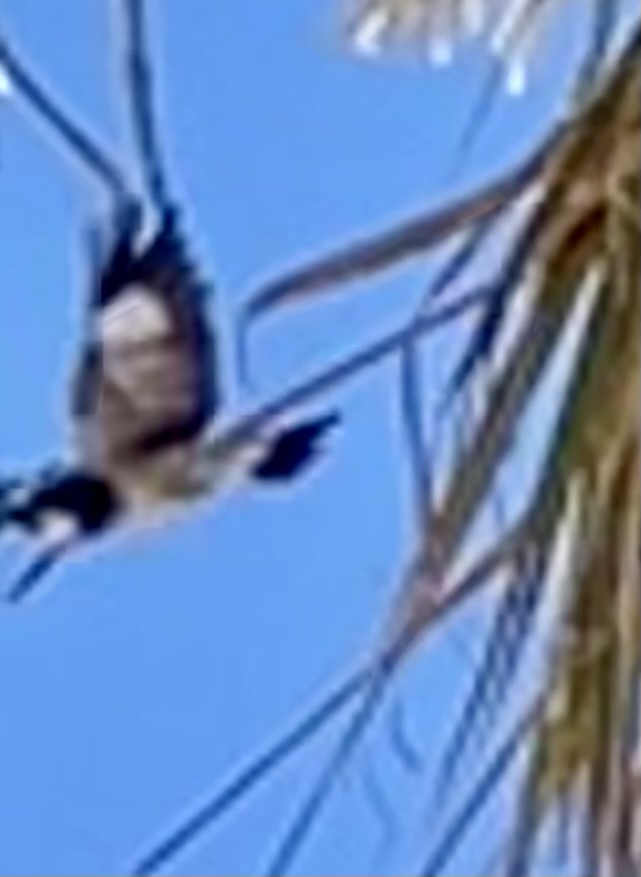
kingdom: Animalia
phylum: Chordata
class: Aves
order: Piciformes
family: Picidae
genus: Melanerpes
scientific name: Melanerpes formicivorus
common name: Acorn woodpecker
